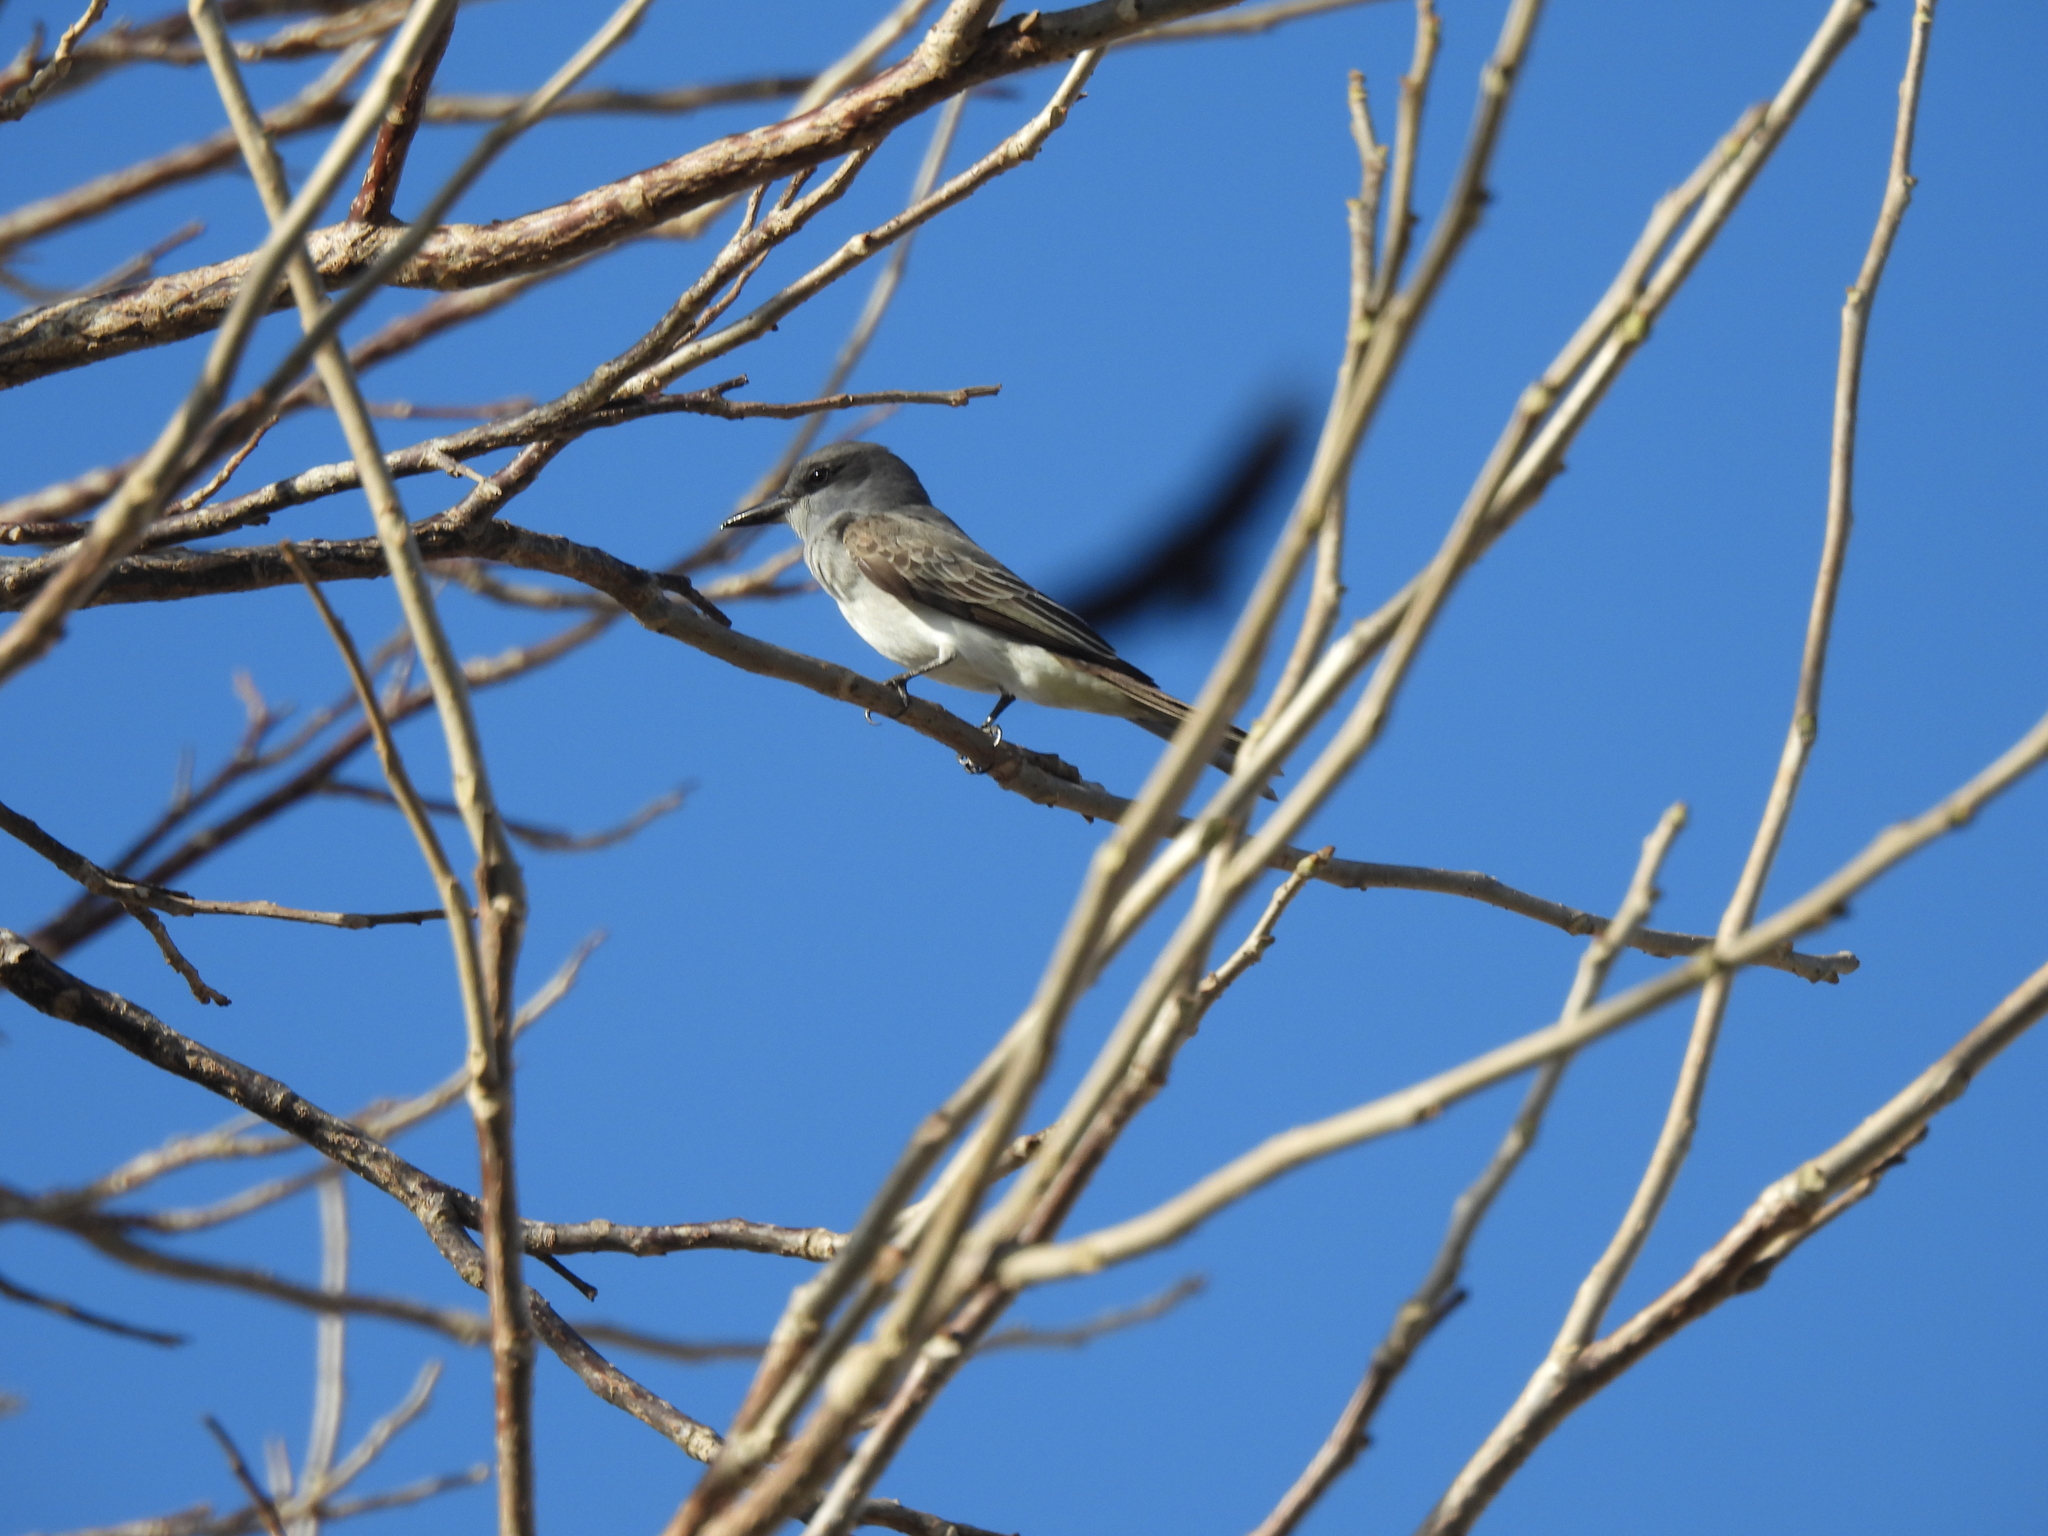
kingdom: Animalia
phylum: Chordata
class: Aves
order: Passeriformes
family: Tyrannidae
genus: Tyrannus
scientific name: Tyrannus dominicensis
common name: Gray kingbird
